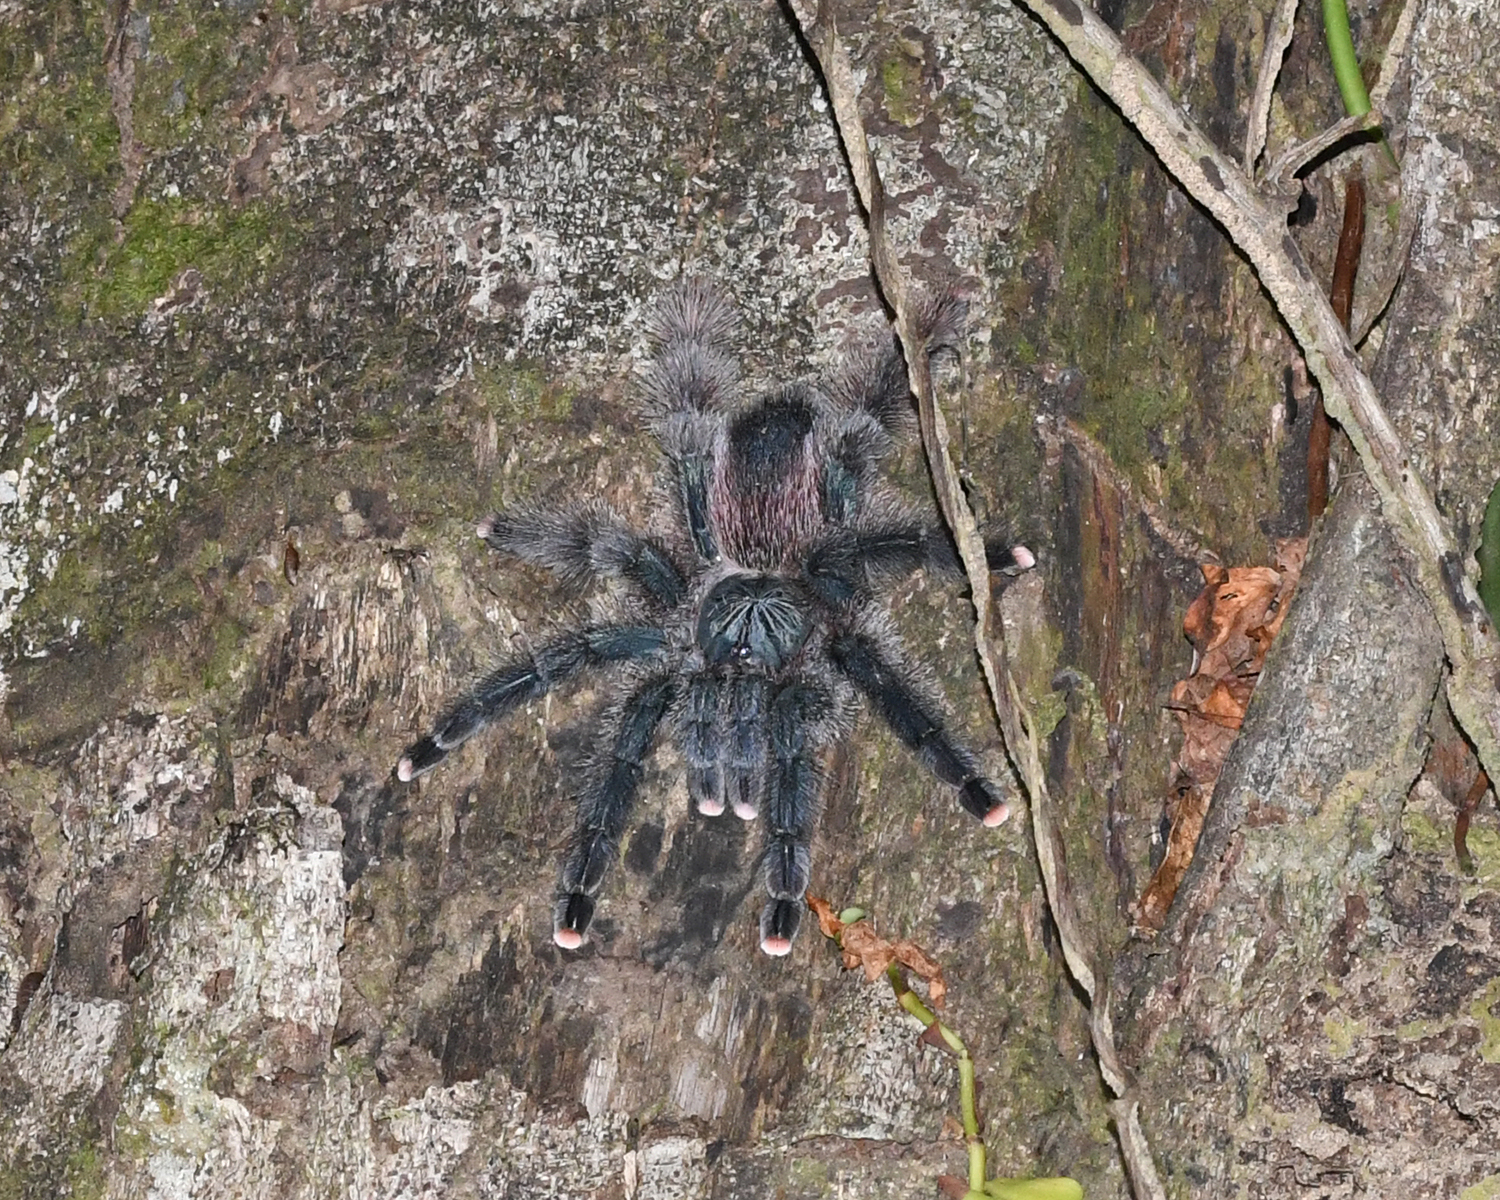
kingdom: Animalia
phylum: Arthropoda
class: Arachnida
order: Araneae
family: Theraphosidae
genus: Avicularia
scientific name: Avicularia avicularia
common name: Tarantula spiders
